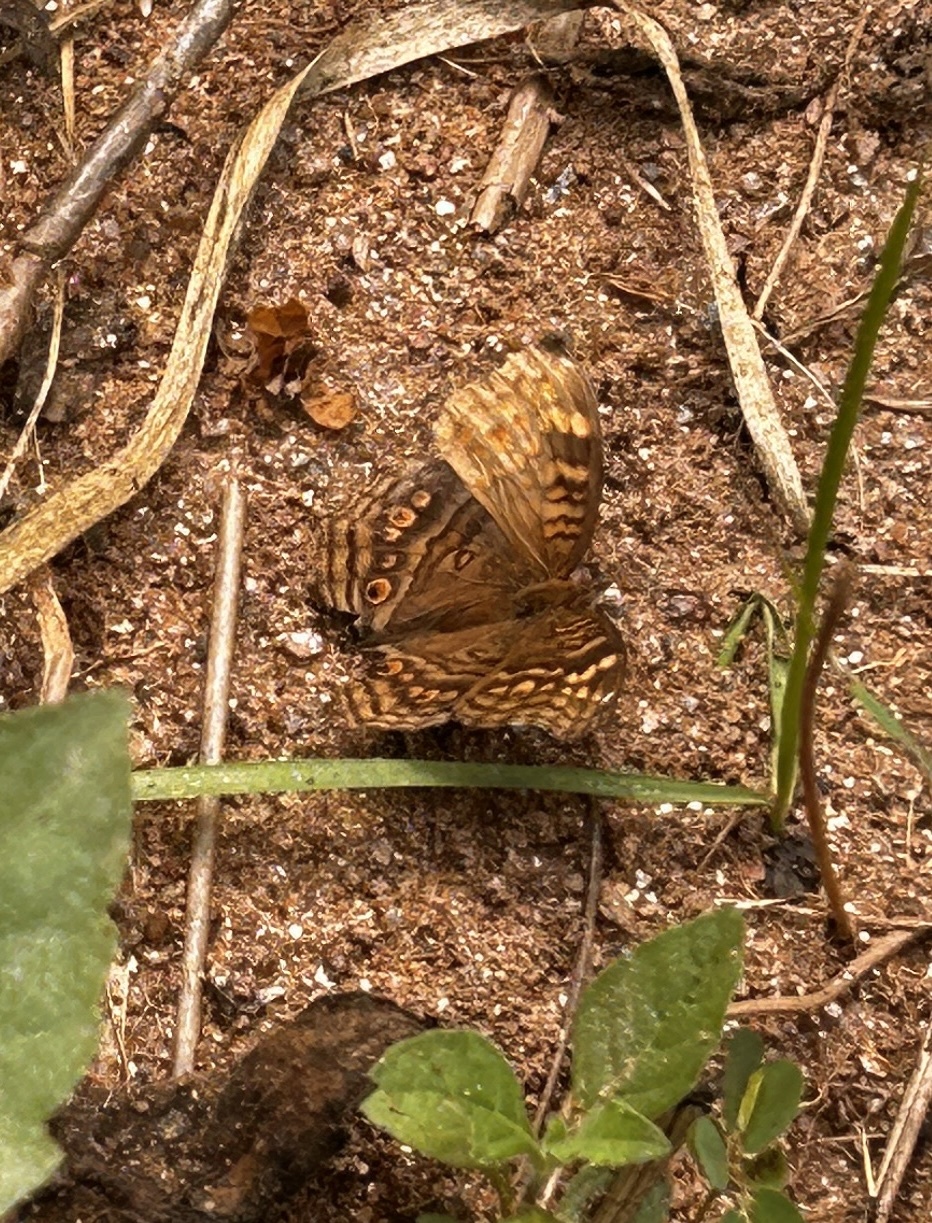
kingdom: Animalia
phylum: Arthropoda
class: Insecta
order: Lepidoptera
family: Nymphalidae
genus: Junonia
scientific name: Junonia chorimene
